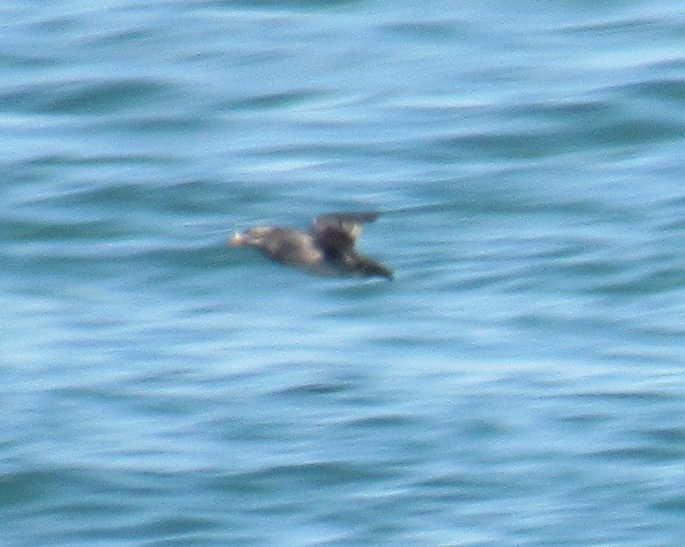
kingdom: Animalia
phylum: Chordata
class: Aves
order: Charadriiformes
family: Alcidae
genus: Cerorhinca
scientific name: Cerorhinca monocerata
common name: Rhinoceros auklet
